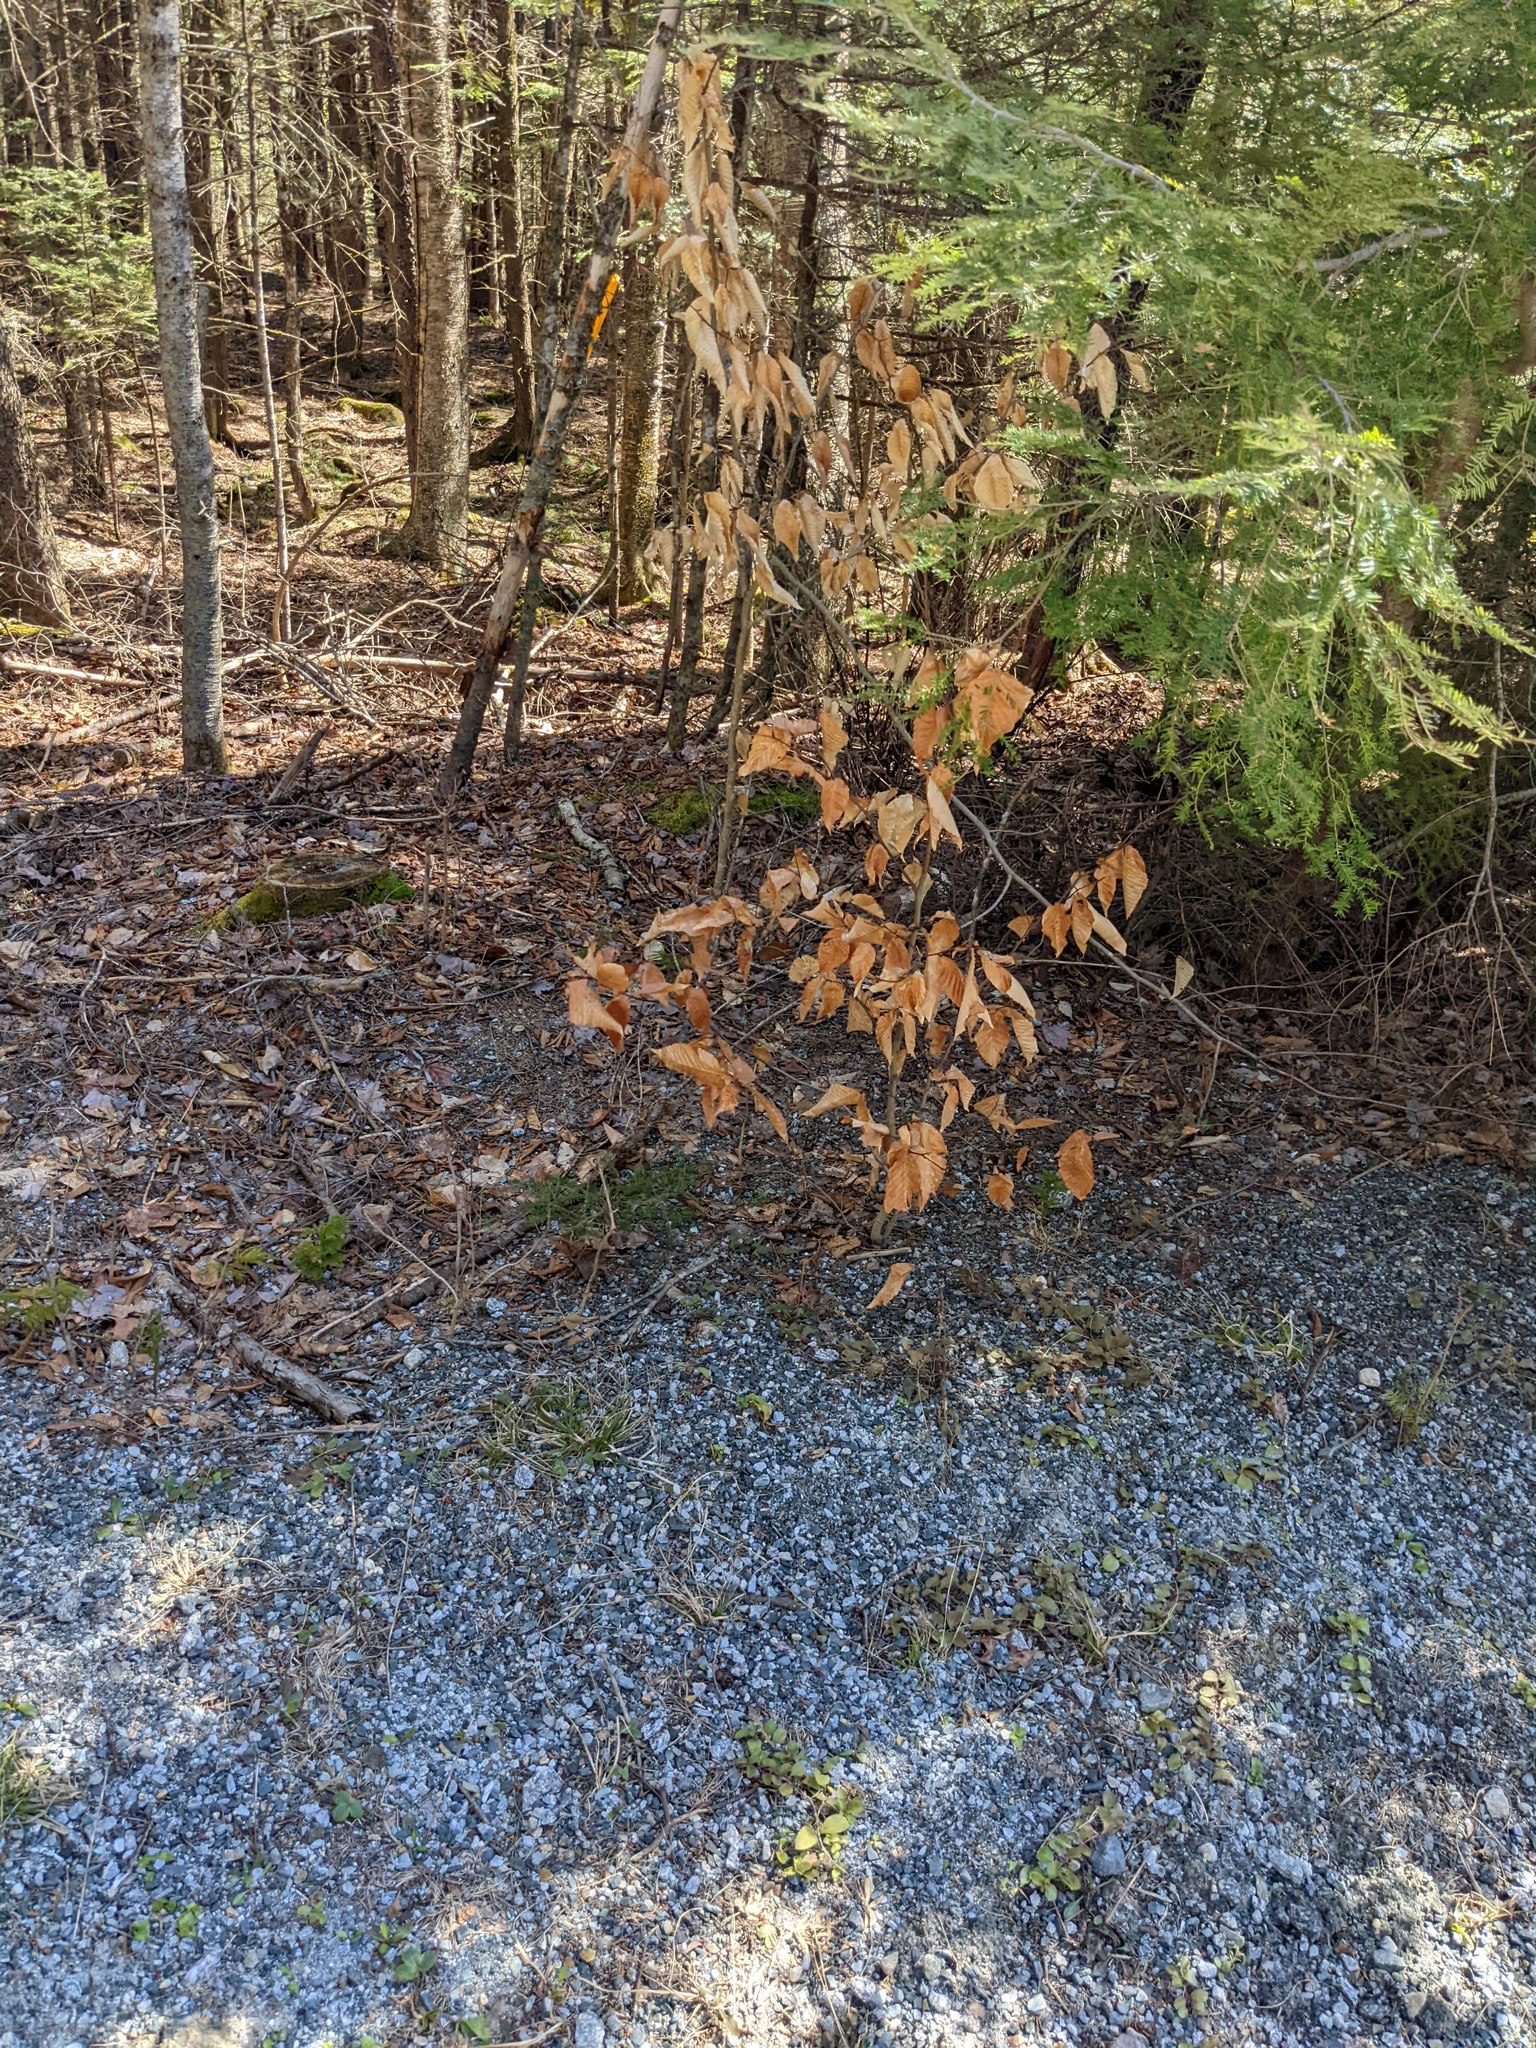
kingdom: Plantae
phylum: Tracheophyta
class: Magnoliopsida
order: Fagales
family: Fagaceae
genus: Fagus
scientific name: Fagus grandifolia
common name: American beech
